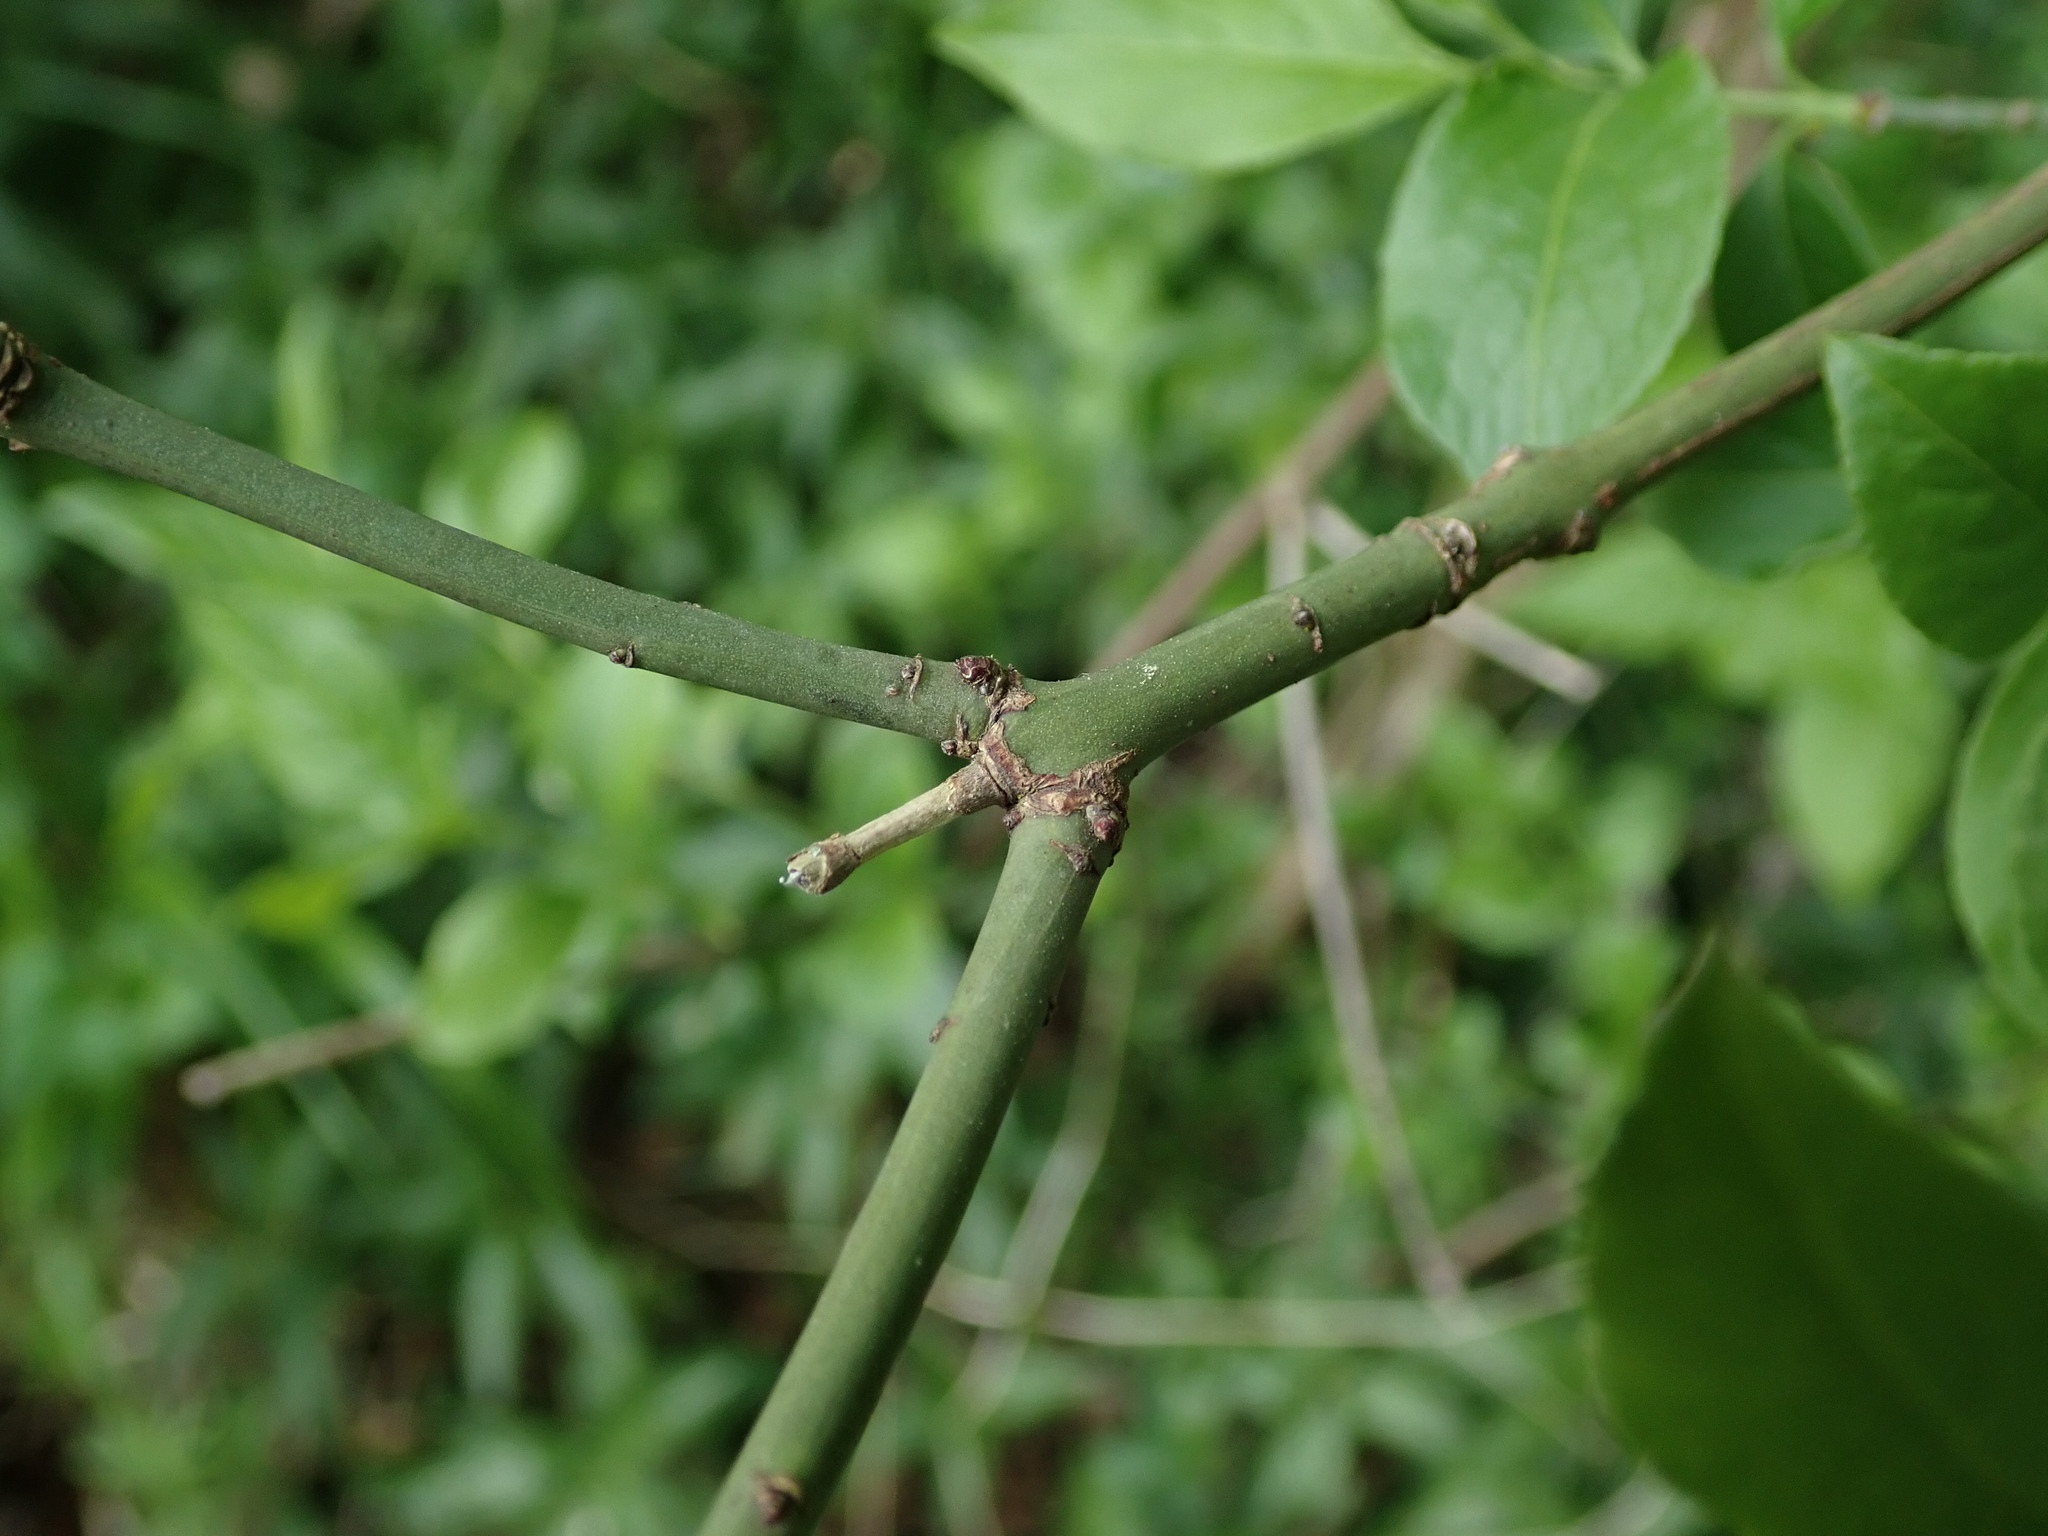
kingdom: Plantae
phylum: Tracheophyta
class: Magnoliopsida
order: Celastrales
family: Celastraceae
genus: Euonymus
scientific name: Euonymus europaeus
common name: Spindle
